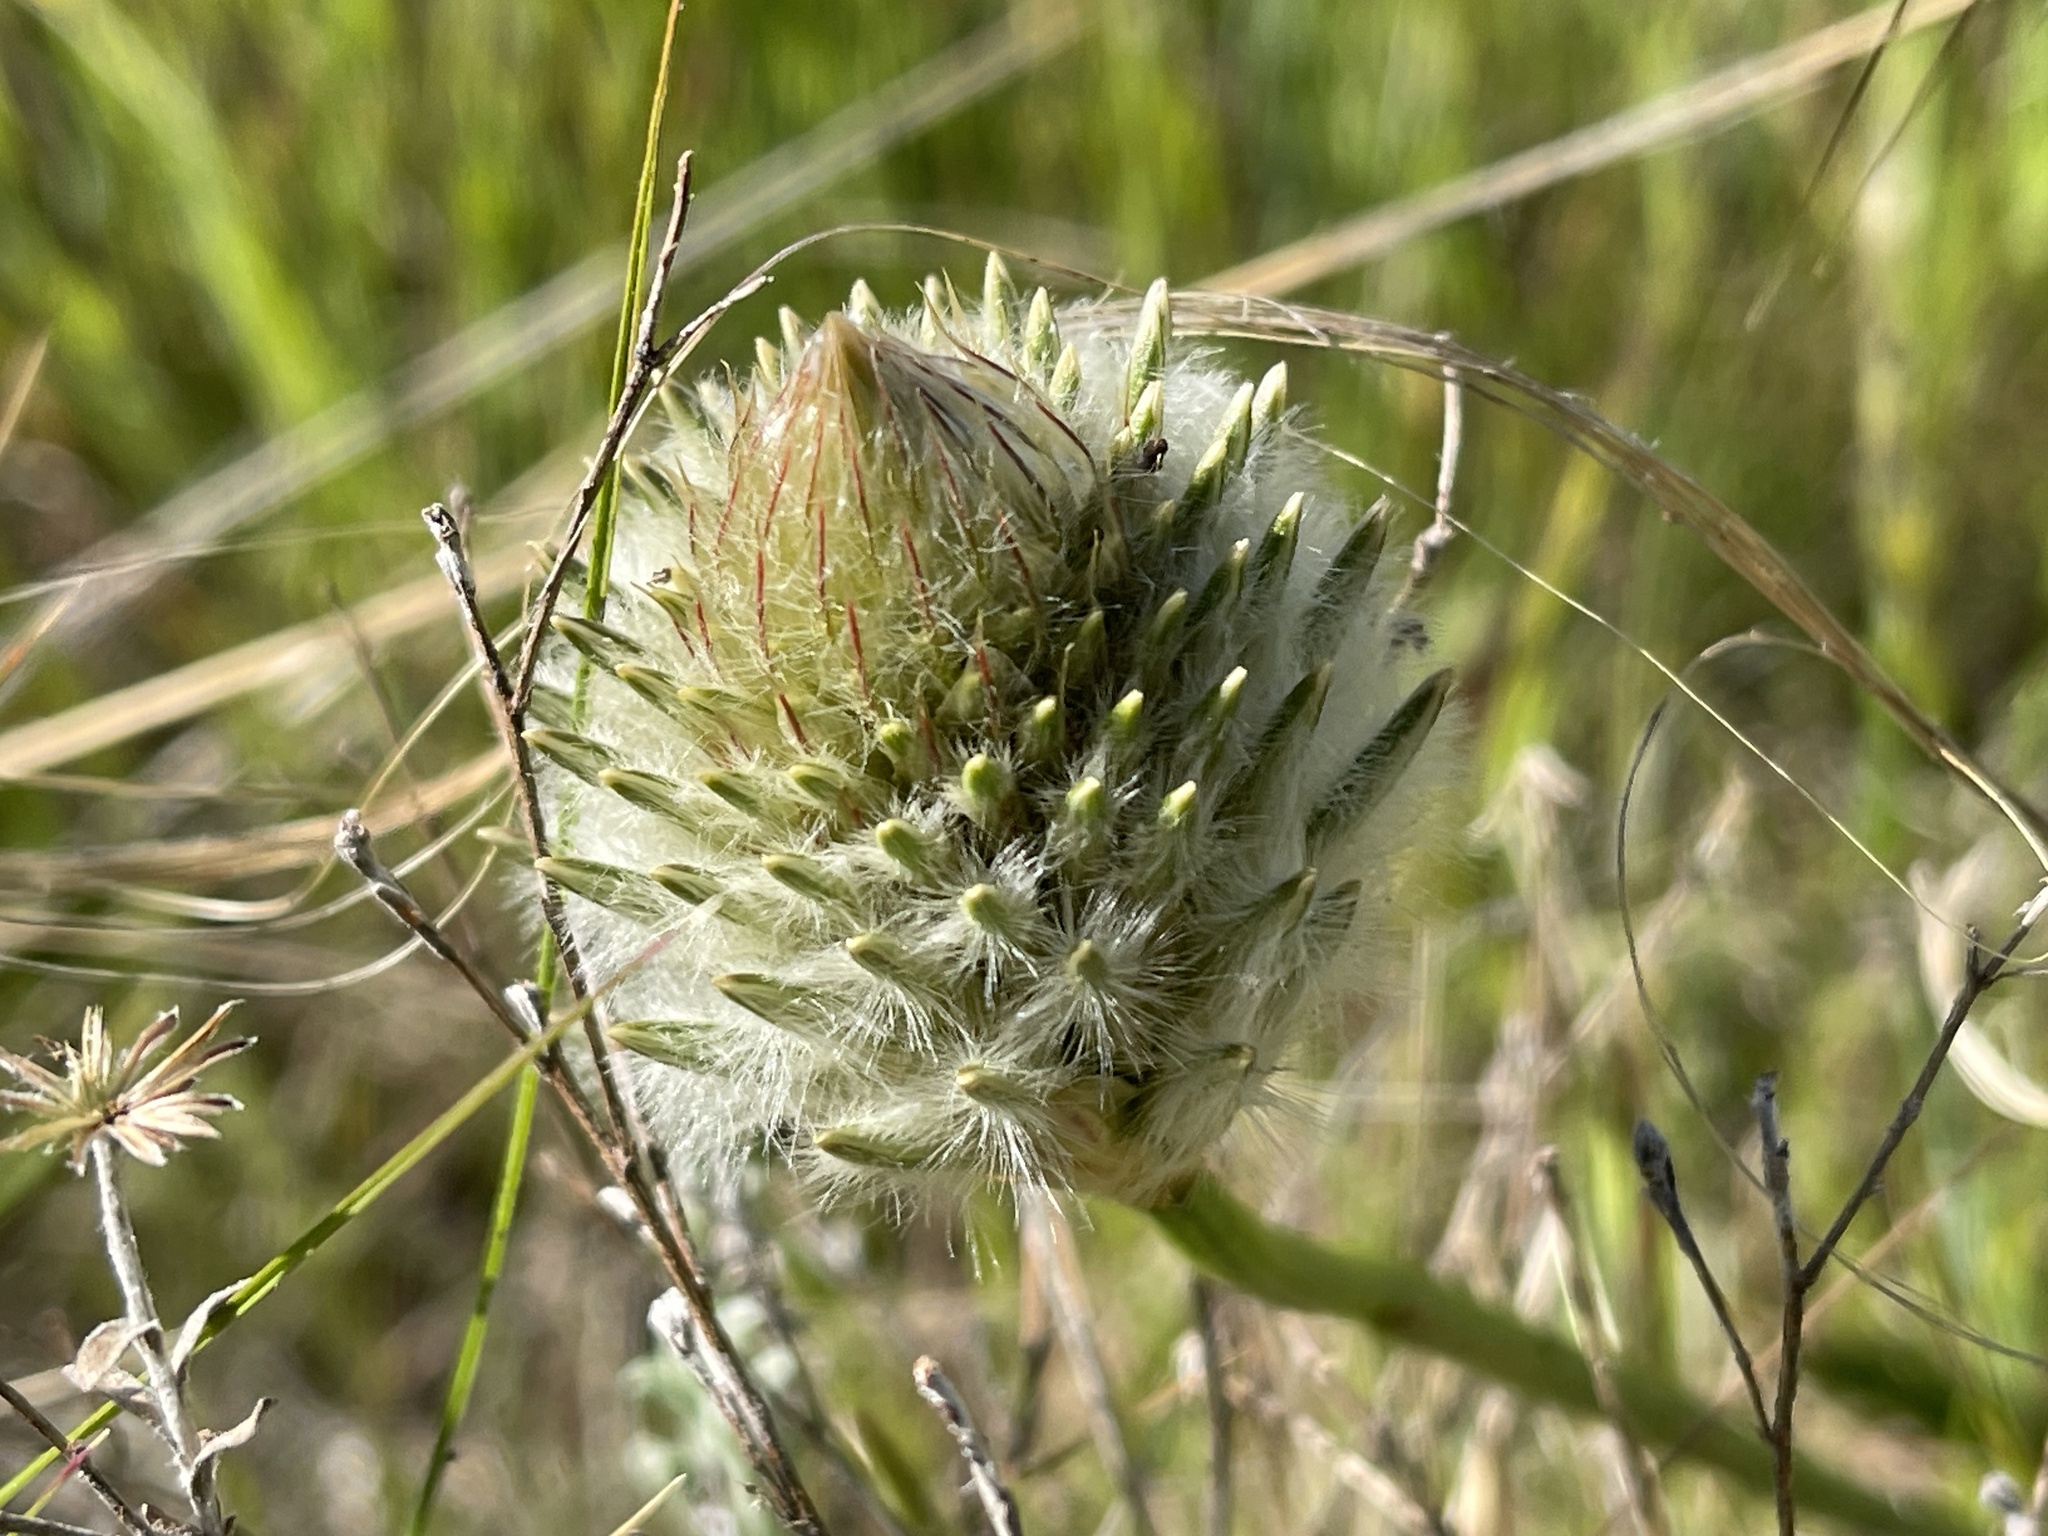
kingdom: Plantae
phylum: Tracheophyta
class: Magnoliopsida
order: Caryophyllales
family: Amaranthaceae
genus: Ptilotus
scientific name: Ptilotus macrocephalus
